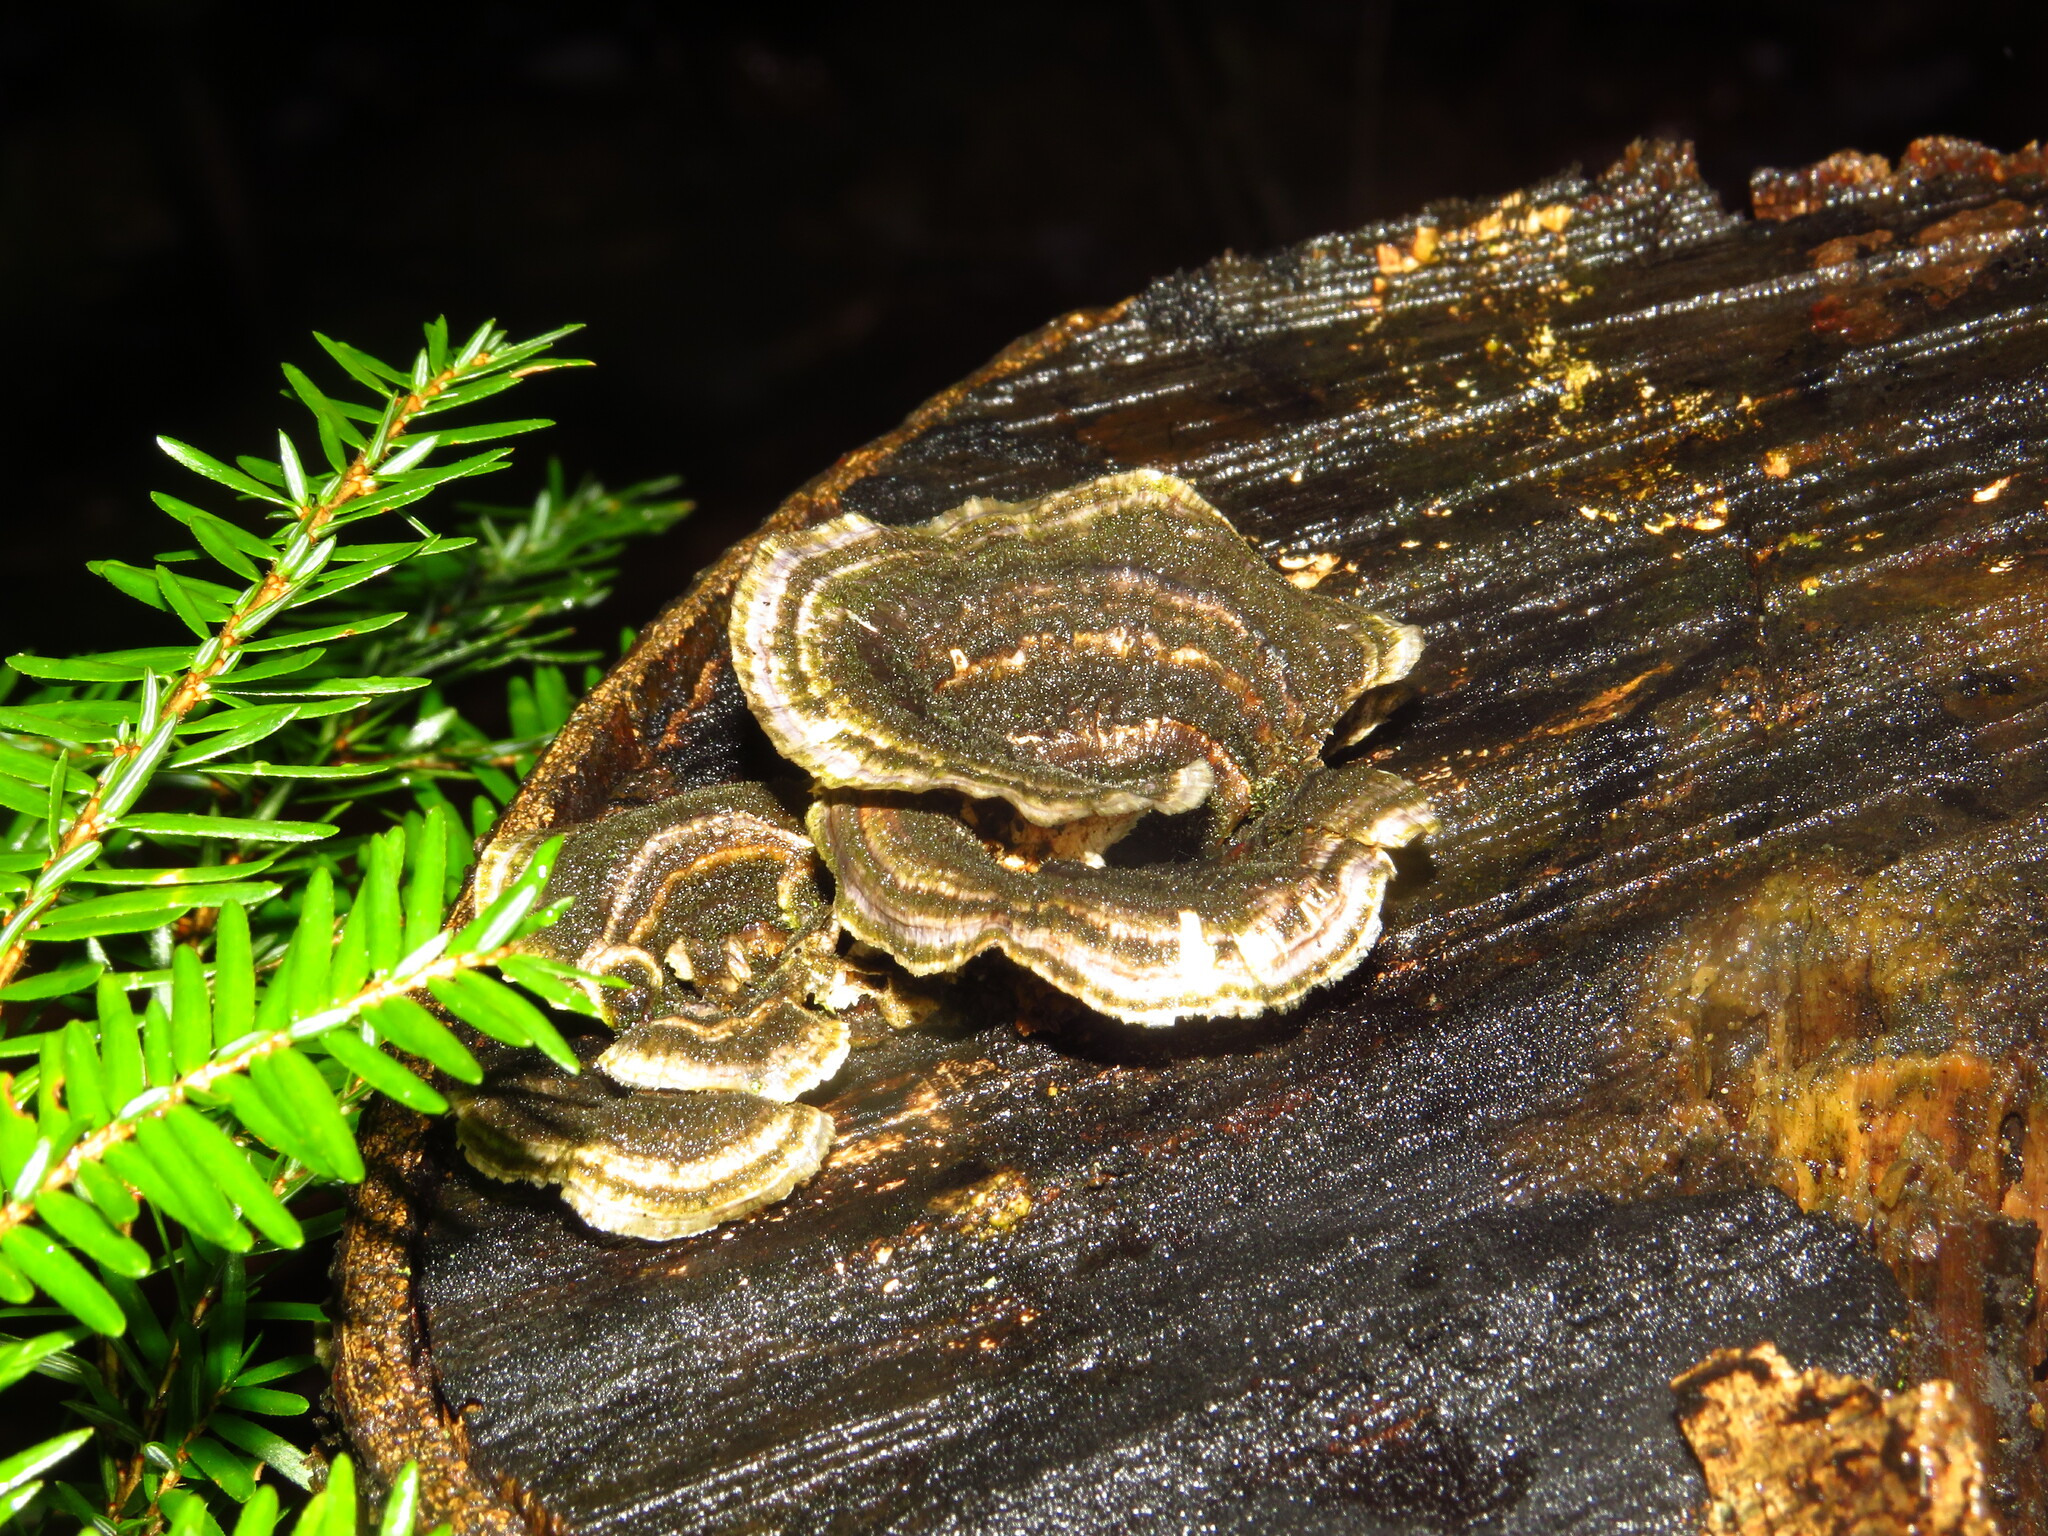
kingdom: Fungi
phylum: Basidiomycota
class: Agaricomycetes
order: Polyporales
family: Polyporaceae
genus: Trametes
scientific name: Trametes versicolor
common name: Turkeytail
